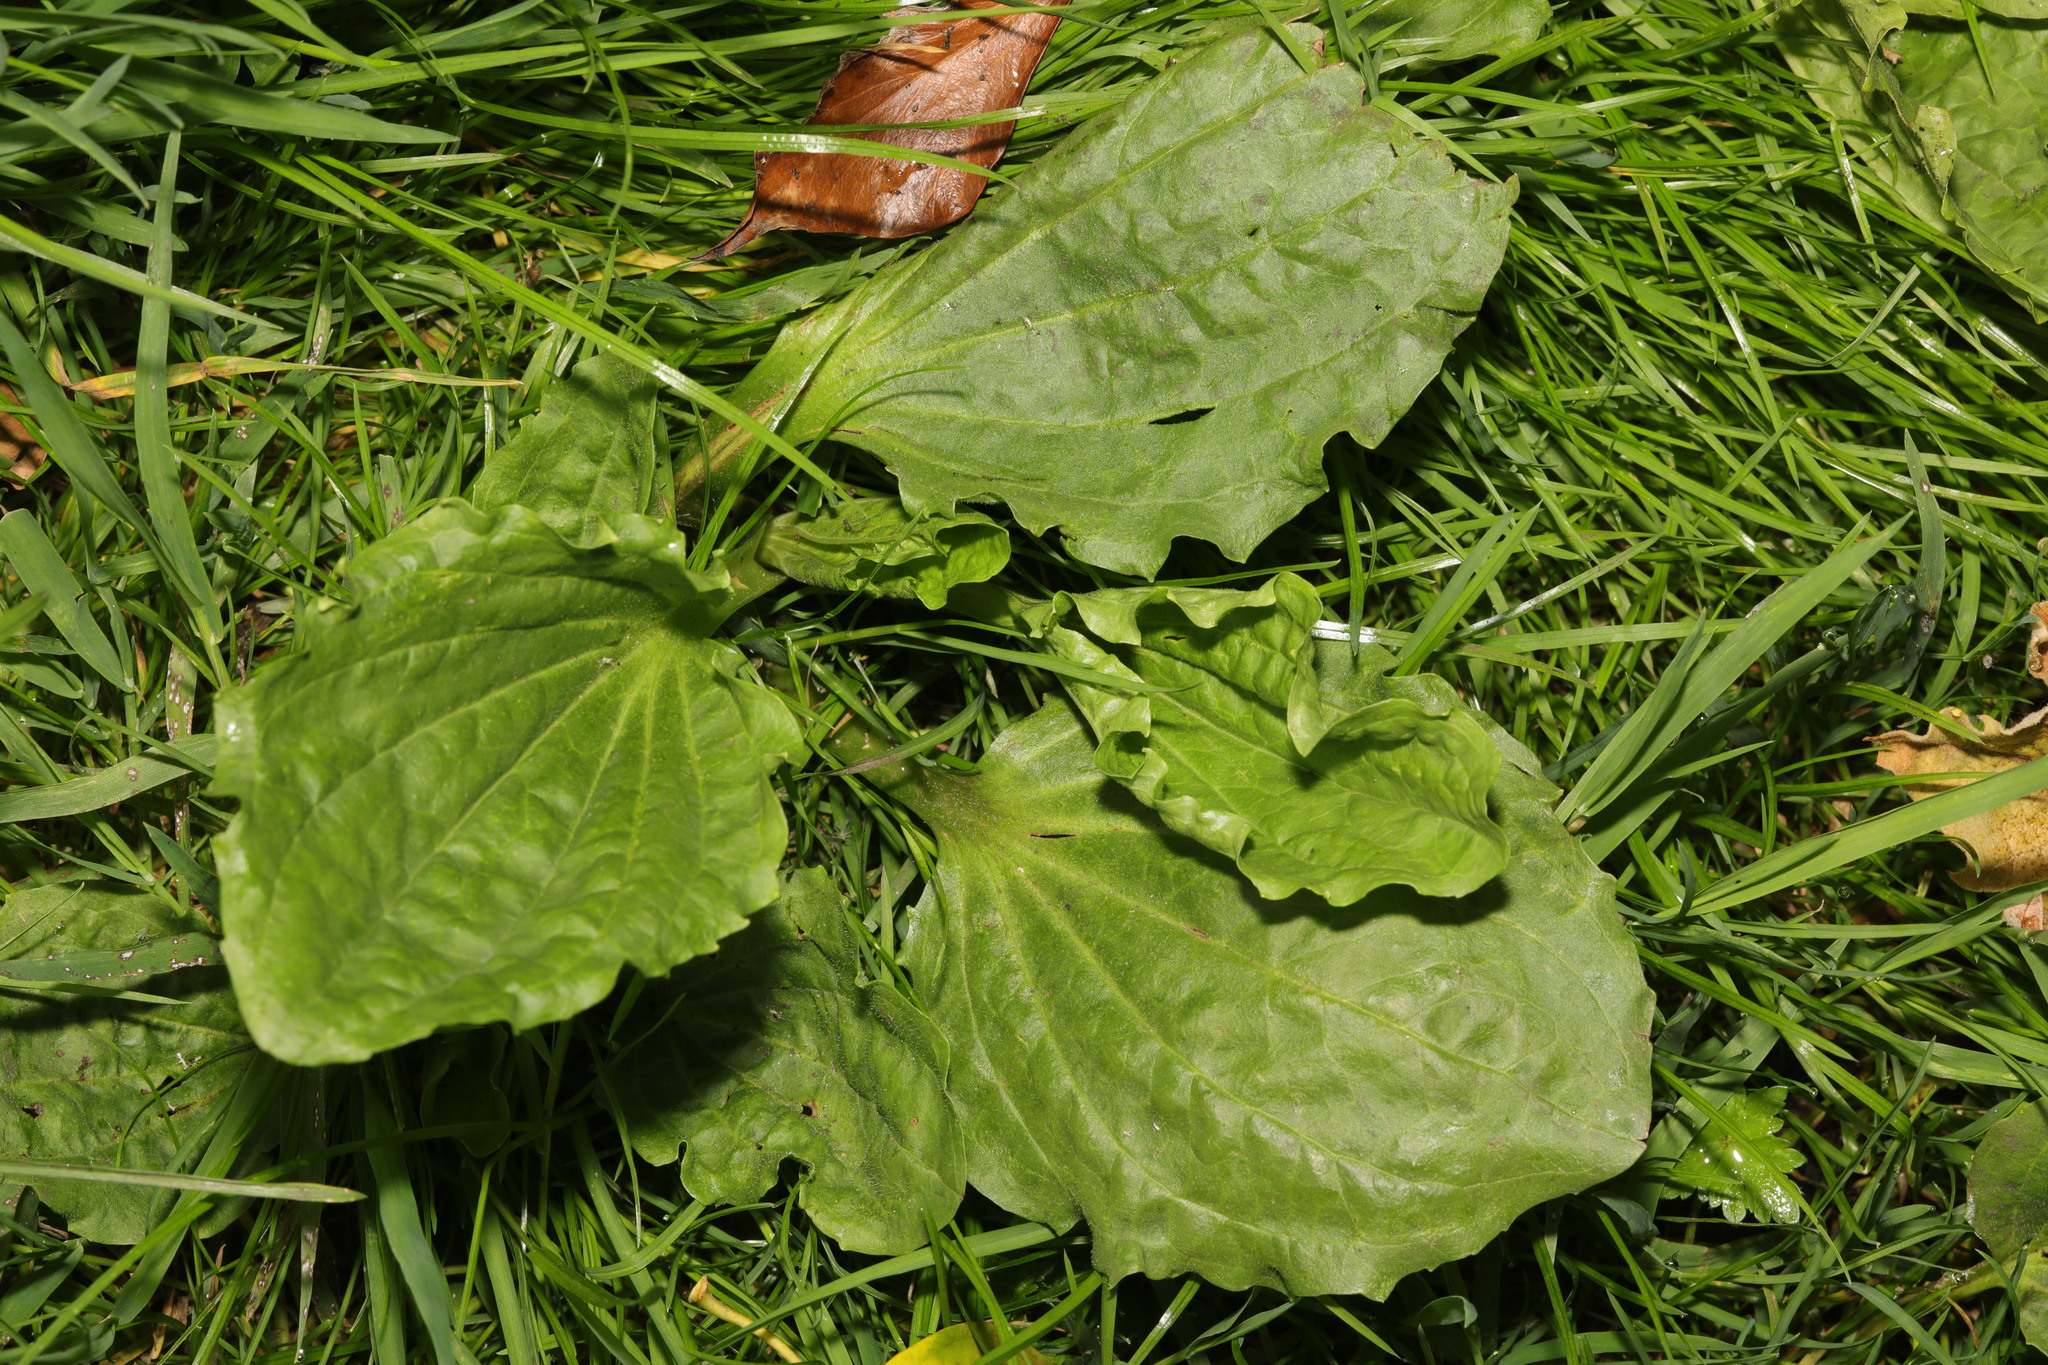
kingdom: Plantae
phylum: Tracheophyta
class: Magnoliopsida
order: Lamiales
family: Plantaginaceae
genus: Plantago
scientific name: Plantago major
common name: Common plantain
